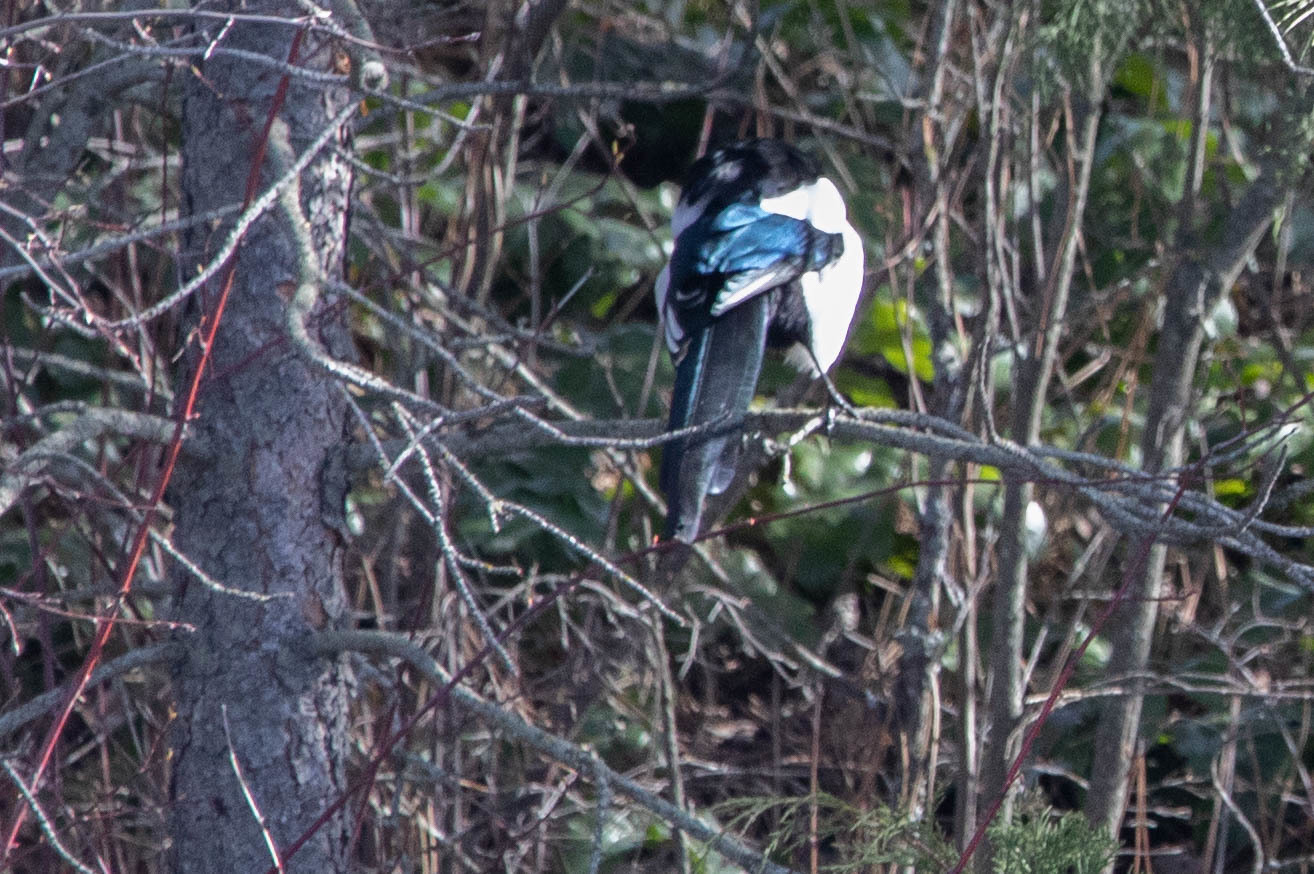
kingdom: Animalia
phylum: Chordata
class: Aves
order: Passeriformes
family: Corvidae
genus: Pica
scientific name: Pica hudsonia
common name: Black-billed magpie
